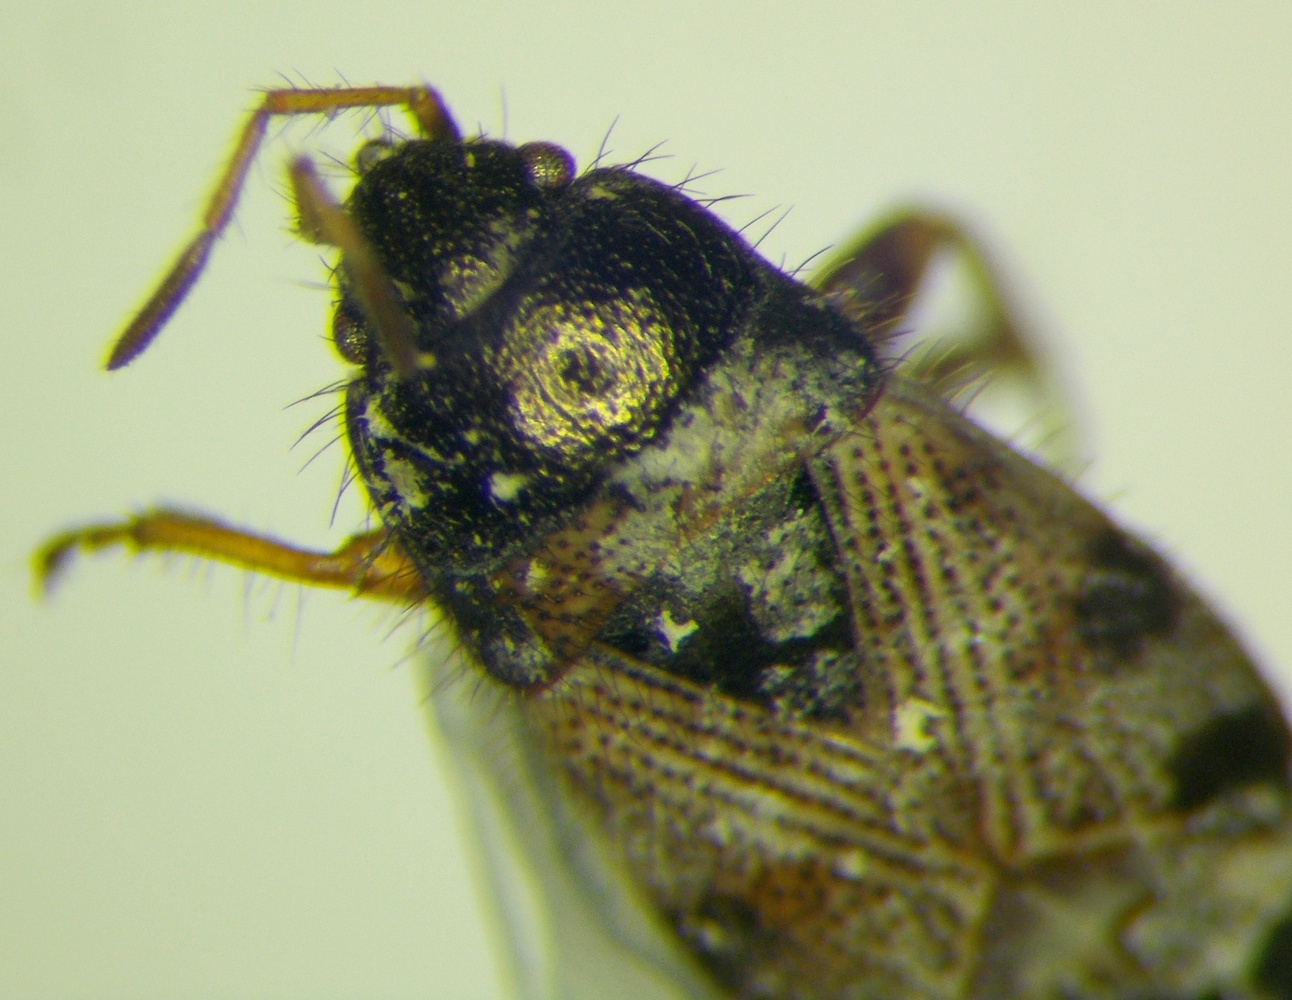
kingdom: Animalia
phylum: Arthropoda
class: Insecta
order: Hemiptera
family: Rhyparochromidae
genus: Pionosomus
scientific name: Pionosomus opacellus
